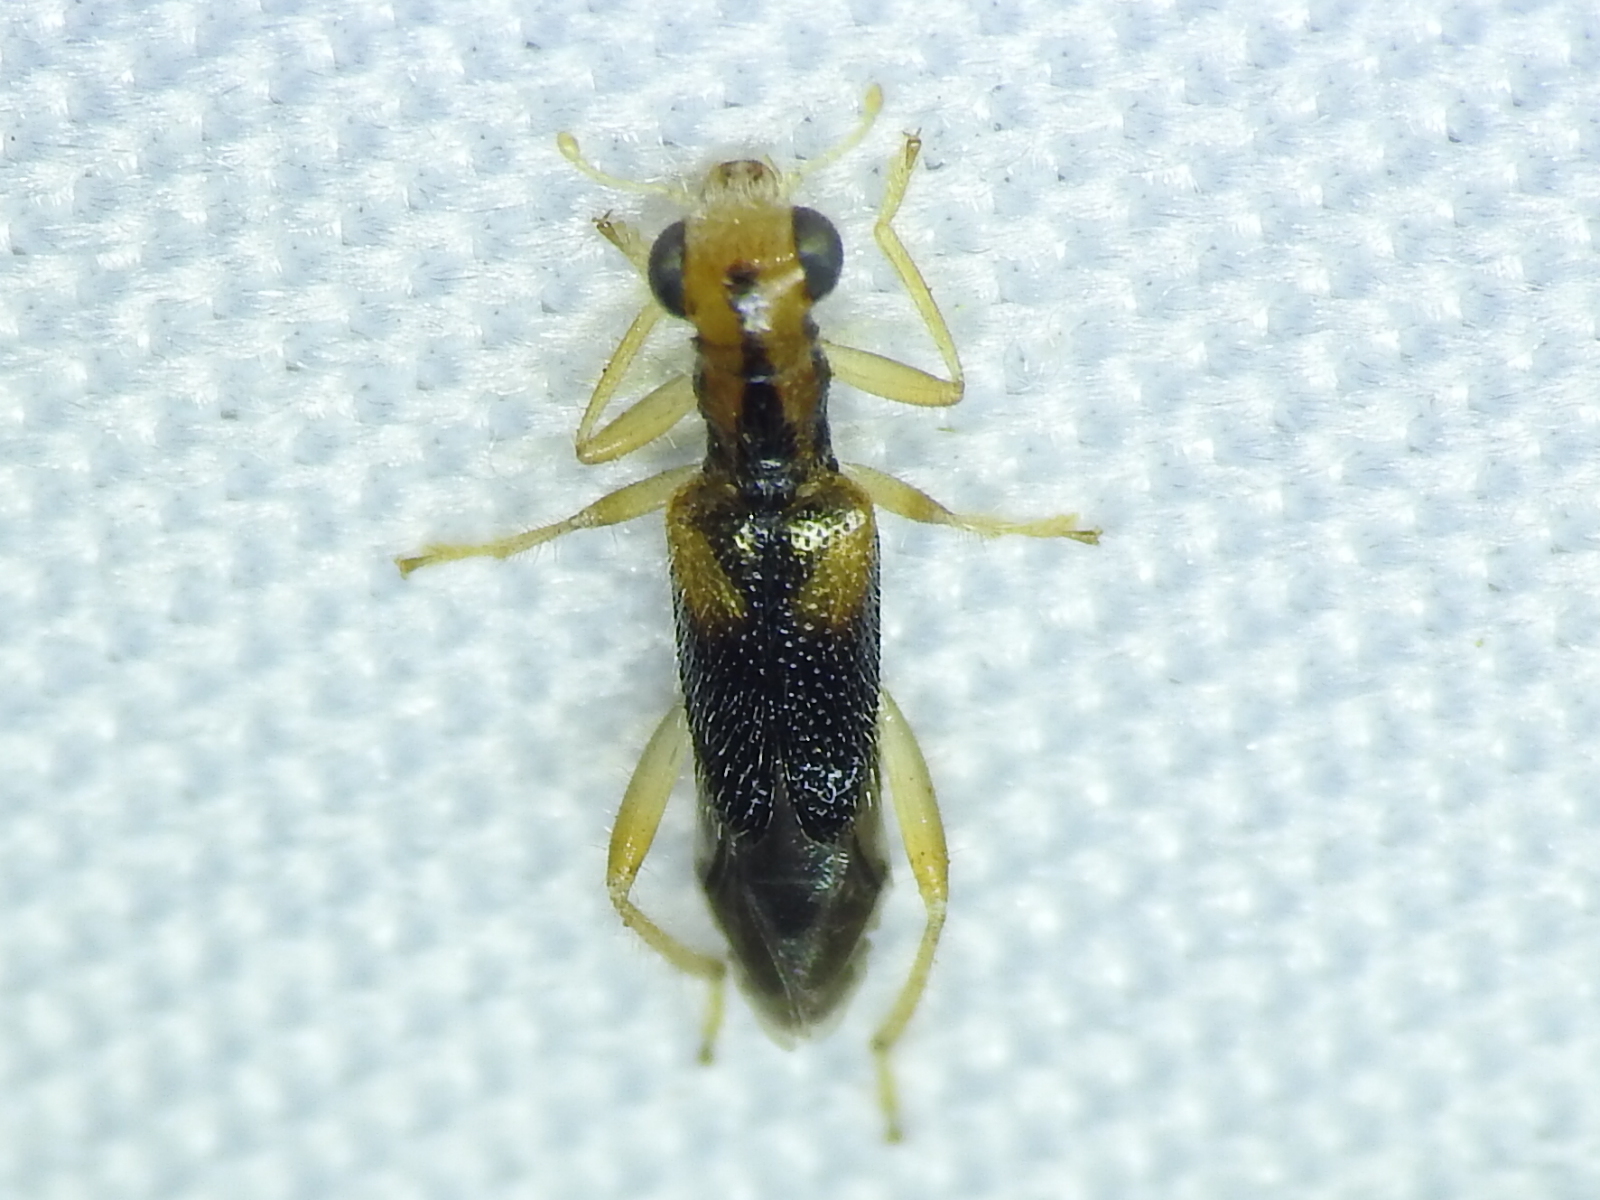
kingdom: Animalia
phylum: Arthropoda
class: Insecta
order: Coleoptera
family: Cleridae
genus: Phyllobaenus
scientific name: Phyllobaenus verticalis
